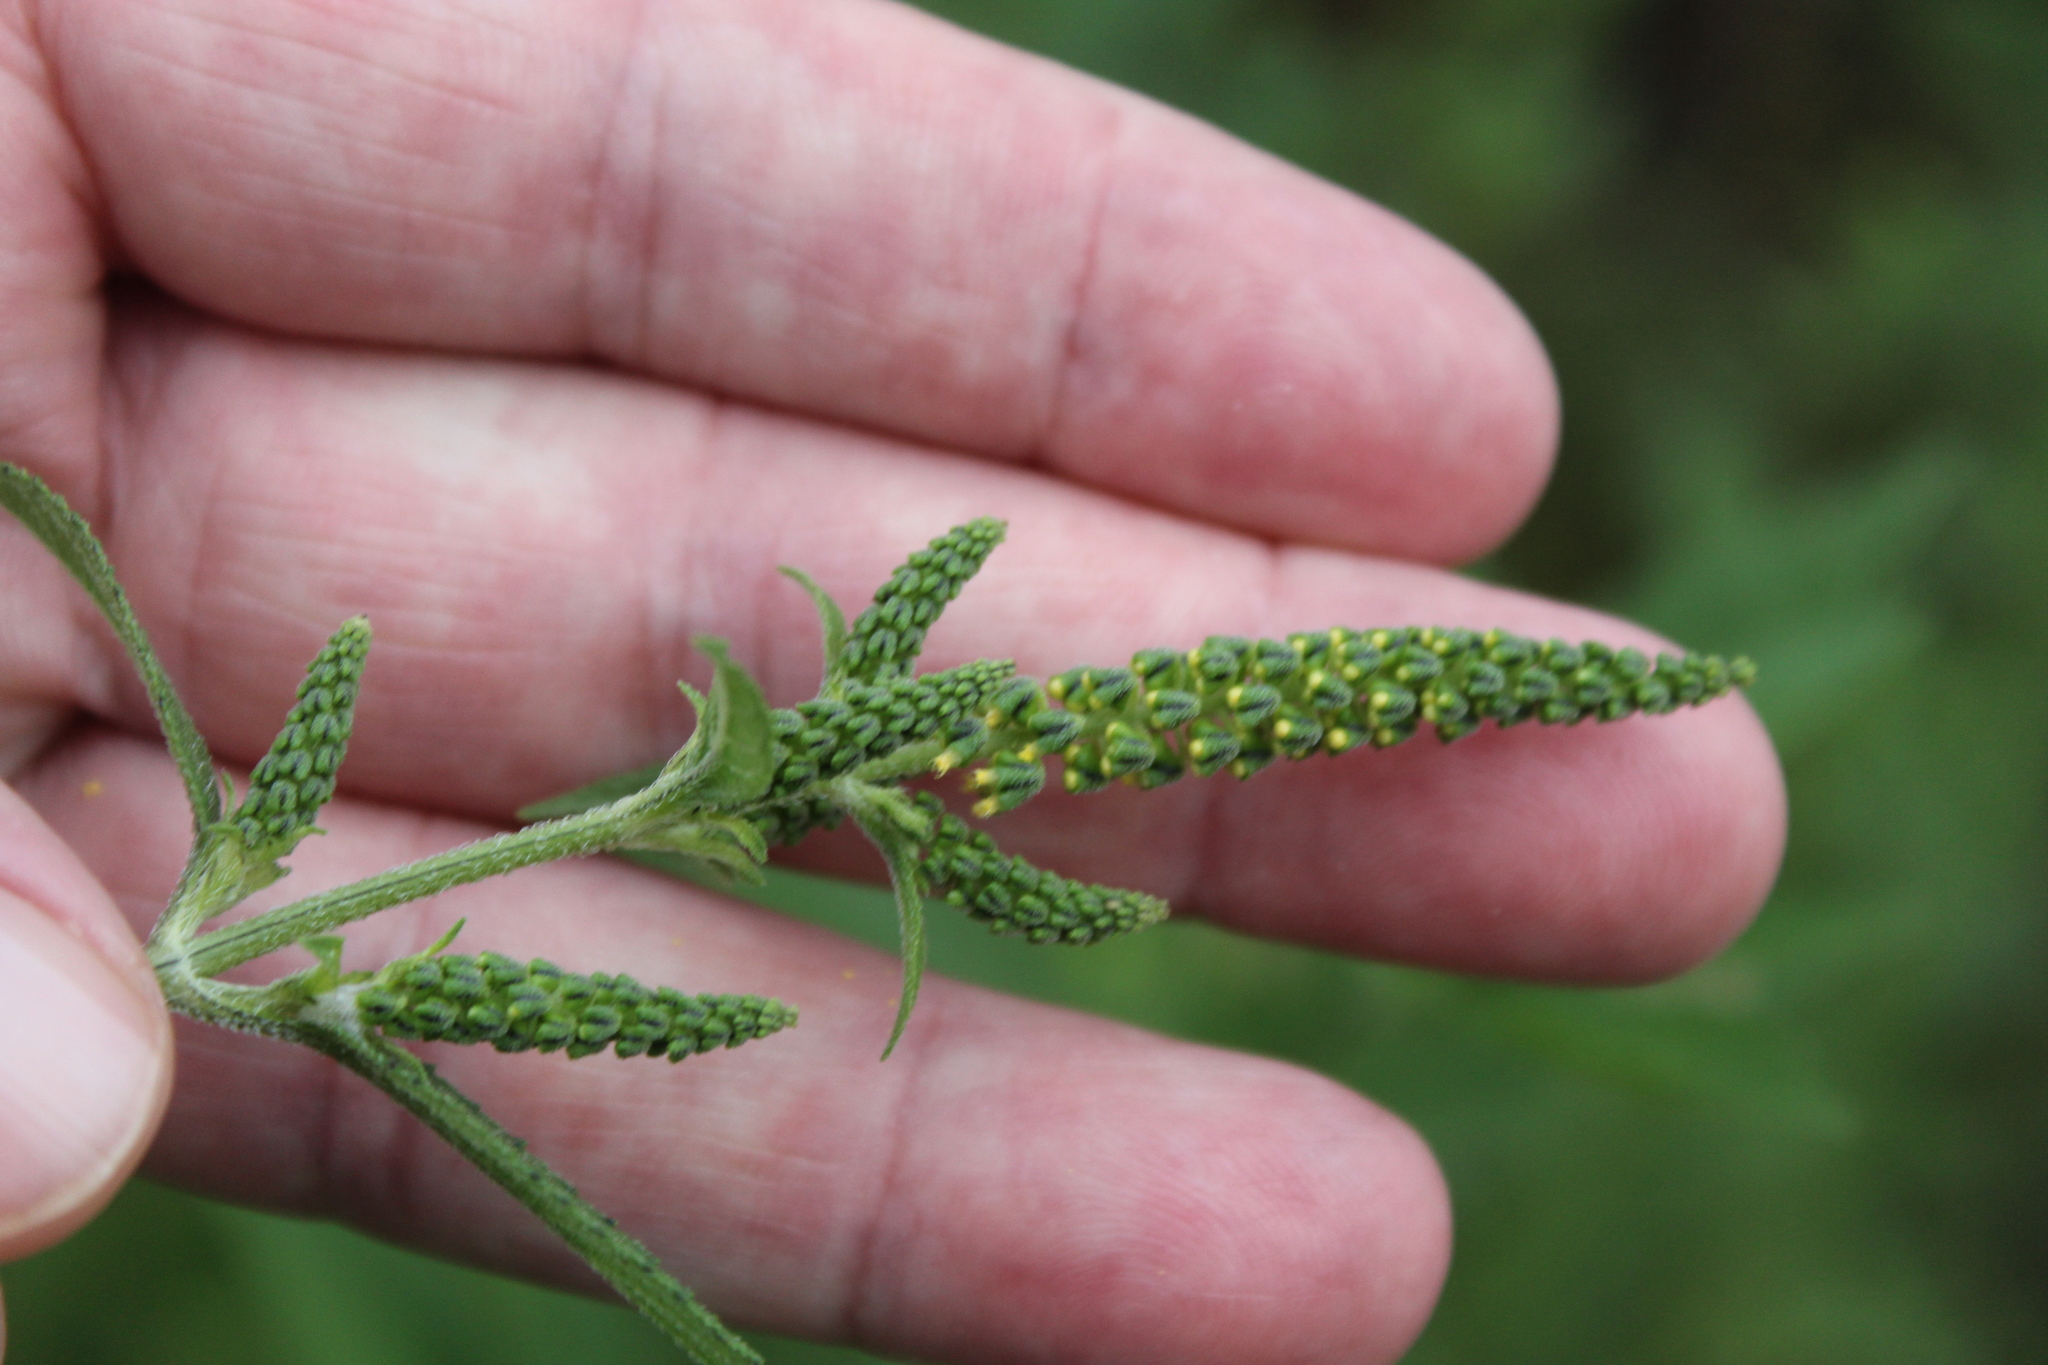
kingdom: Plantae
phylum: Tracheophyta
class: Magnoliopsida
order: Asterales
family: Asteraceae
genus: Ambrosia
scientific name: Ambrosia trifida
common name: Giant ragweed
